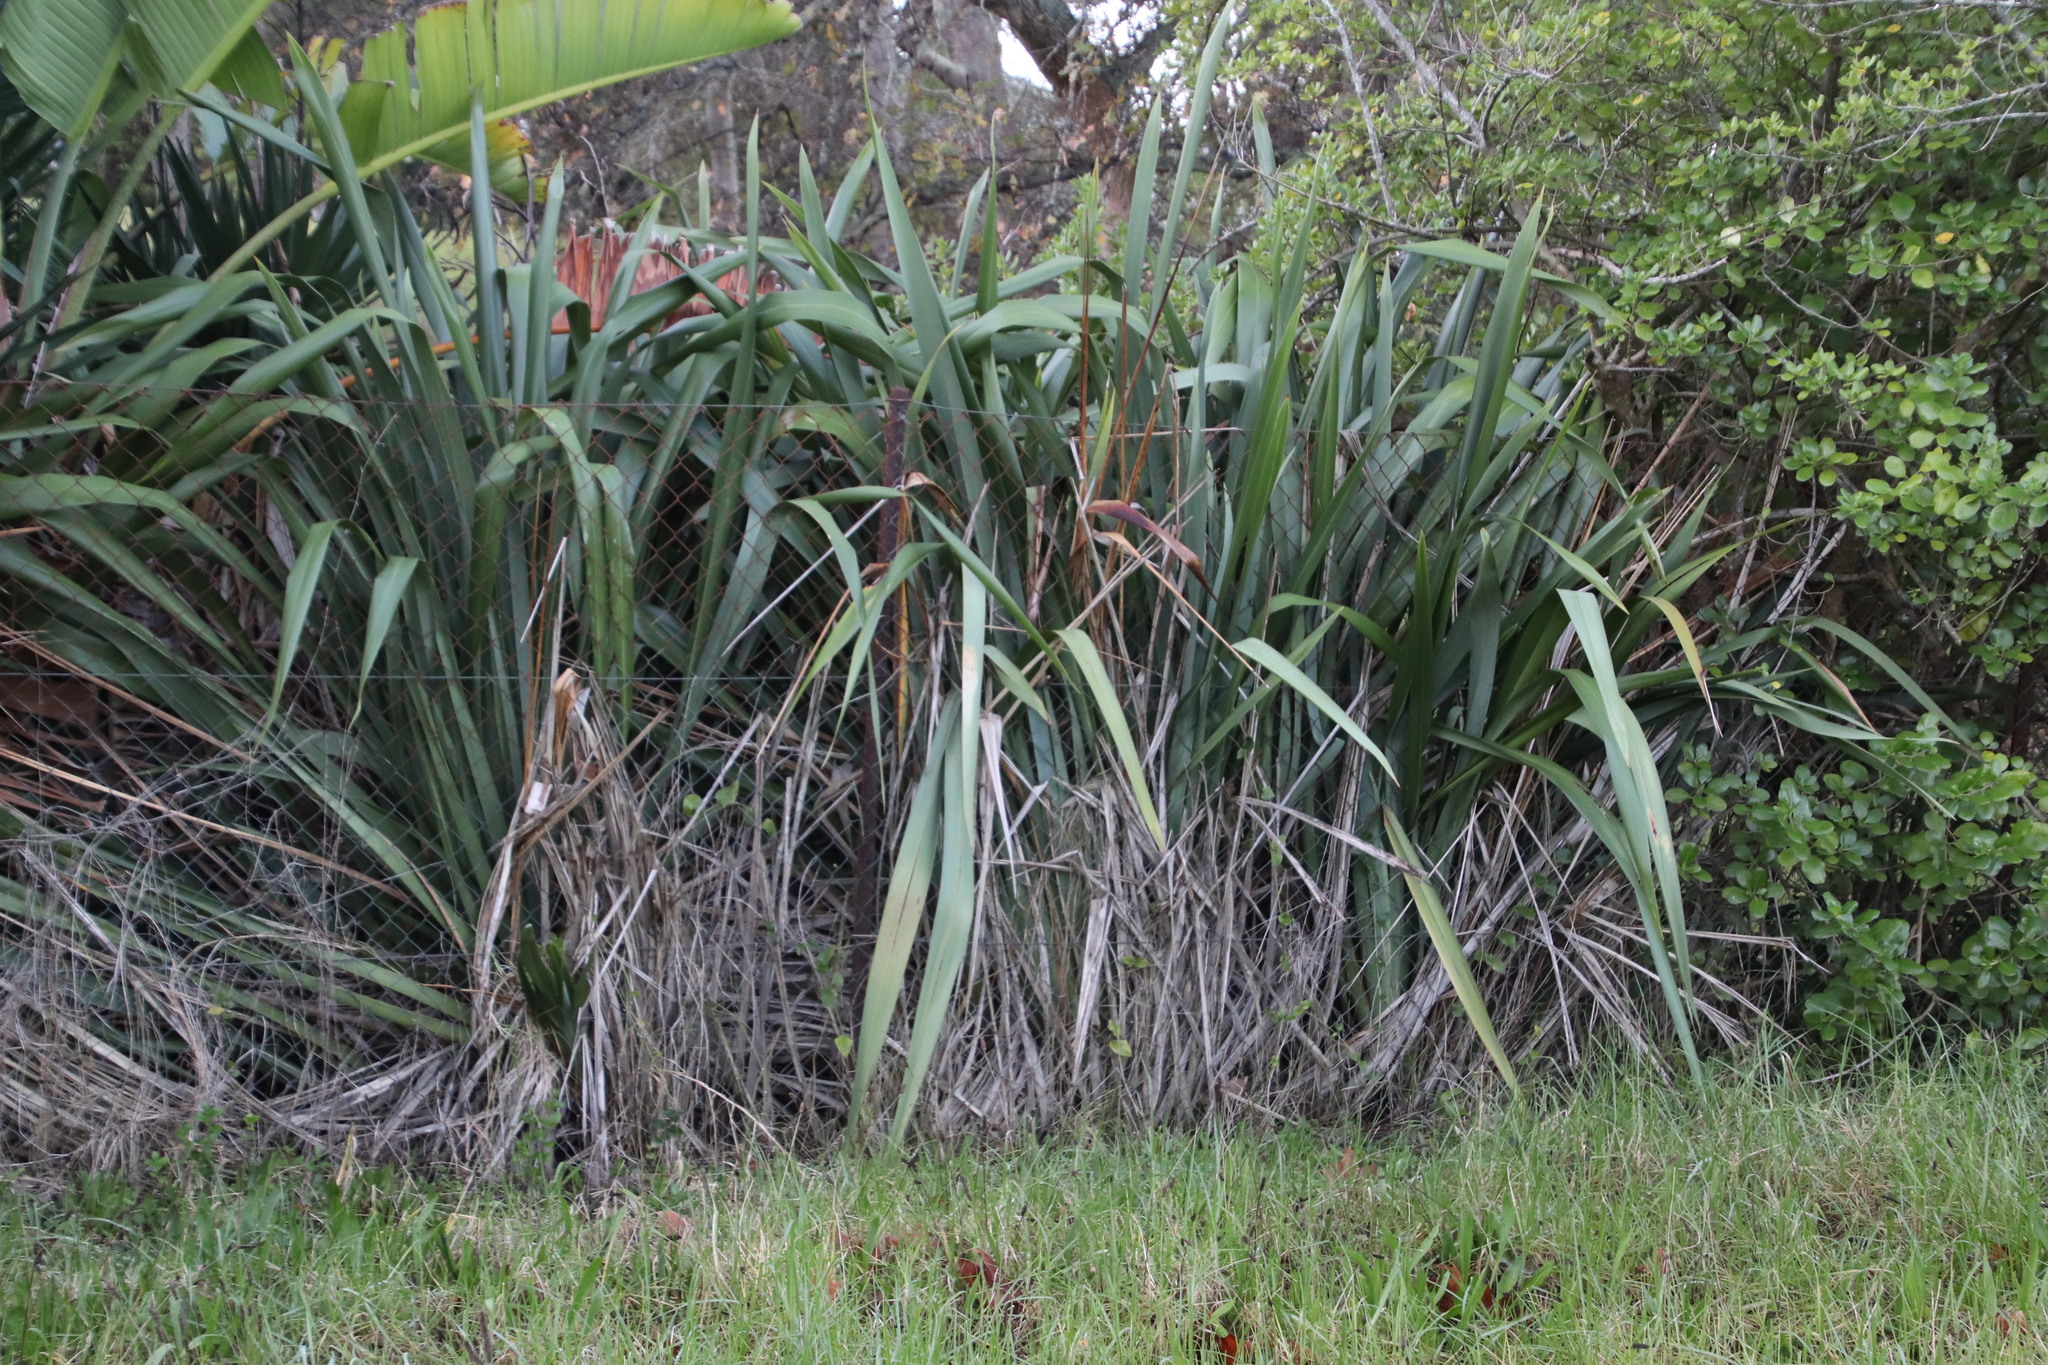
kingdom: Plantae
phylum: Tracheophyta
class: Liliopsida
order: Asparagales
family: Asphodelaceae
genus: Phormium
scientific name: Phormium tenax
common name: New zealand flax
